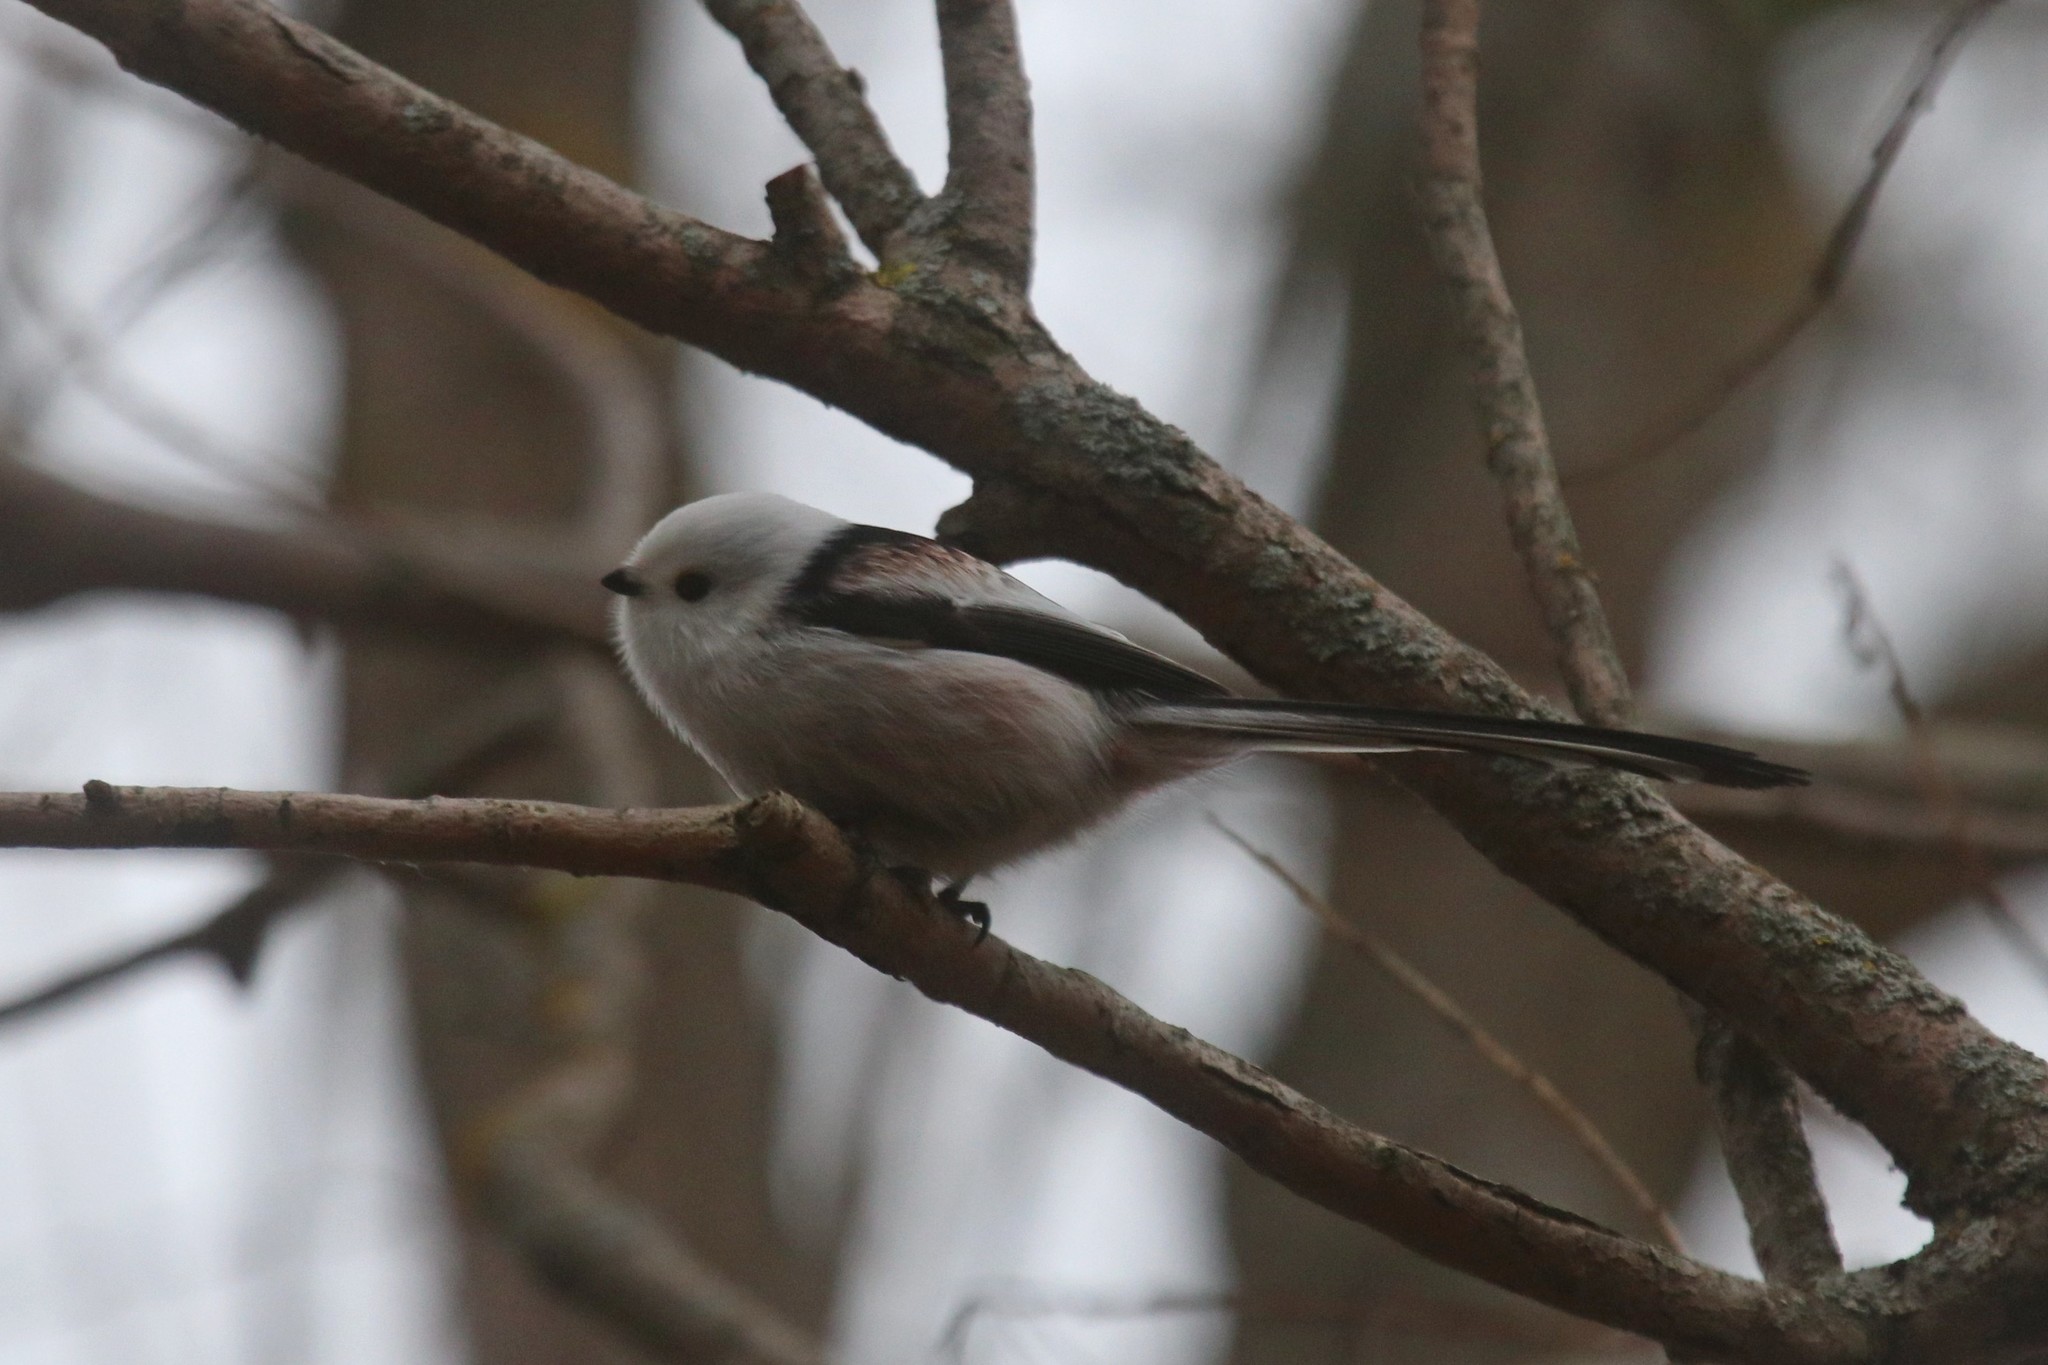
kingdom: Animalia
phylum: Chordata
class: Aves
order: Passeriformes
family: Aegithalidae
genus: Aegithalos
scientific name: Aegithalos caudatus
